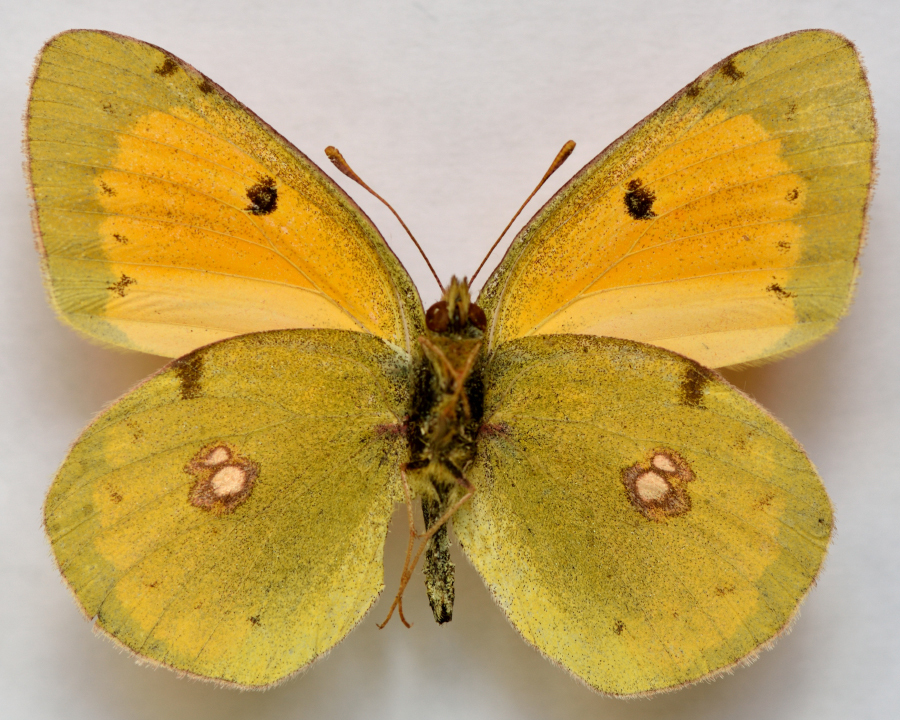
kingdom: Animalia
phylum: Arthropoda
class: Insecta
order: Lepidoptera
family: Pieridae
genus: Colias
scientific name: Colias myrmidone
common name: Danube clouded yellow
